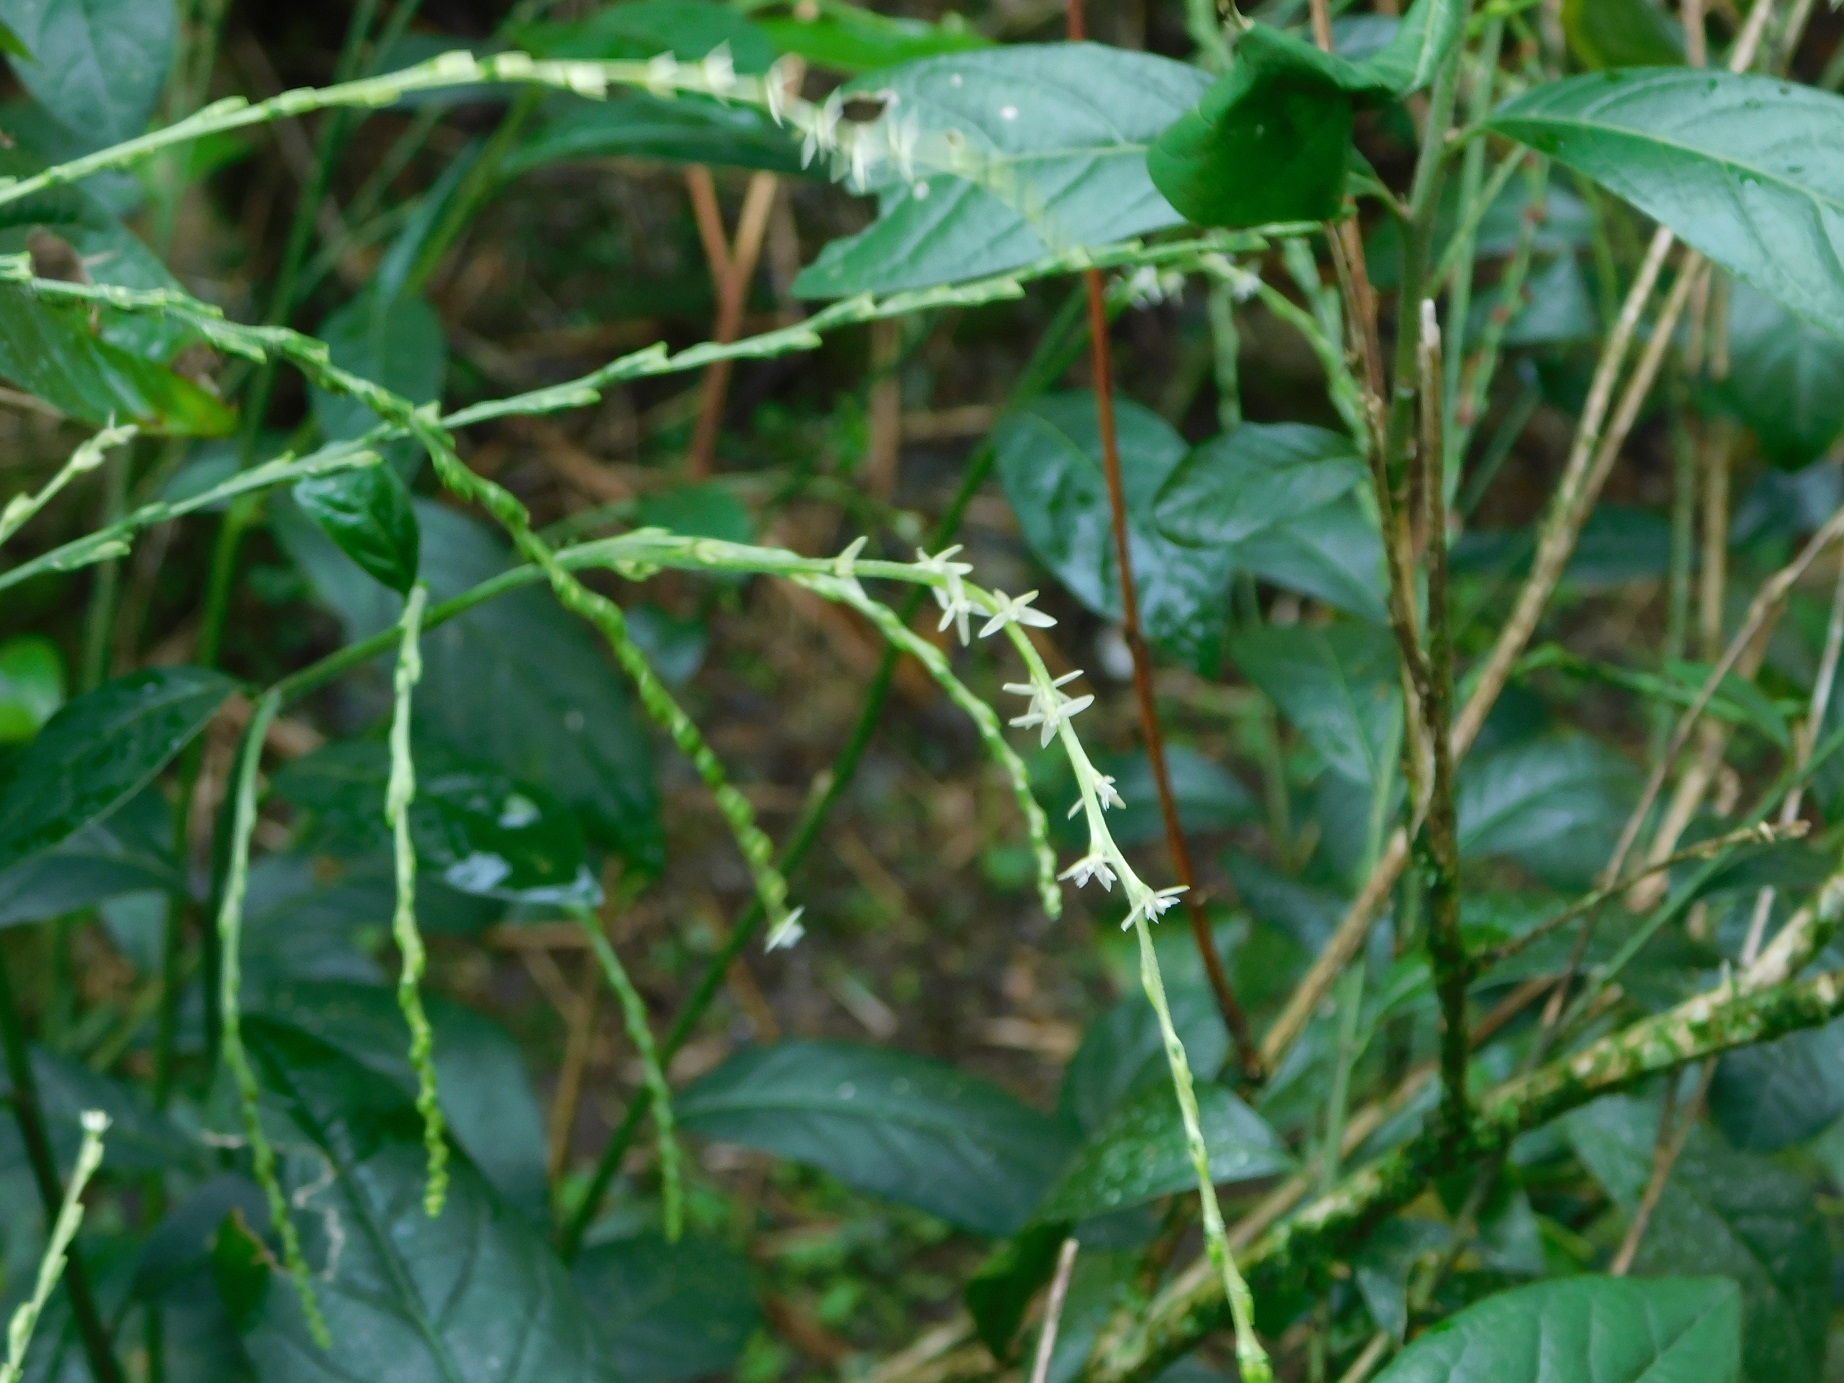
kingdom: Plantae
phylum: Tracheophyta
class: Magnoliopsida
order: Caryophyllales
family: Phytolaccaceae
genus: Petiveria
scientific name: Petiveria alliacea
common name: Garlicweed
